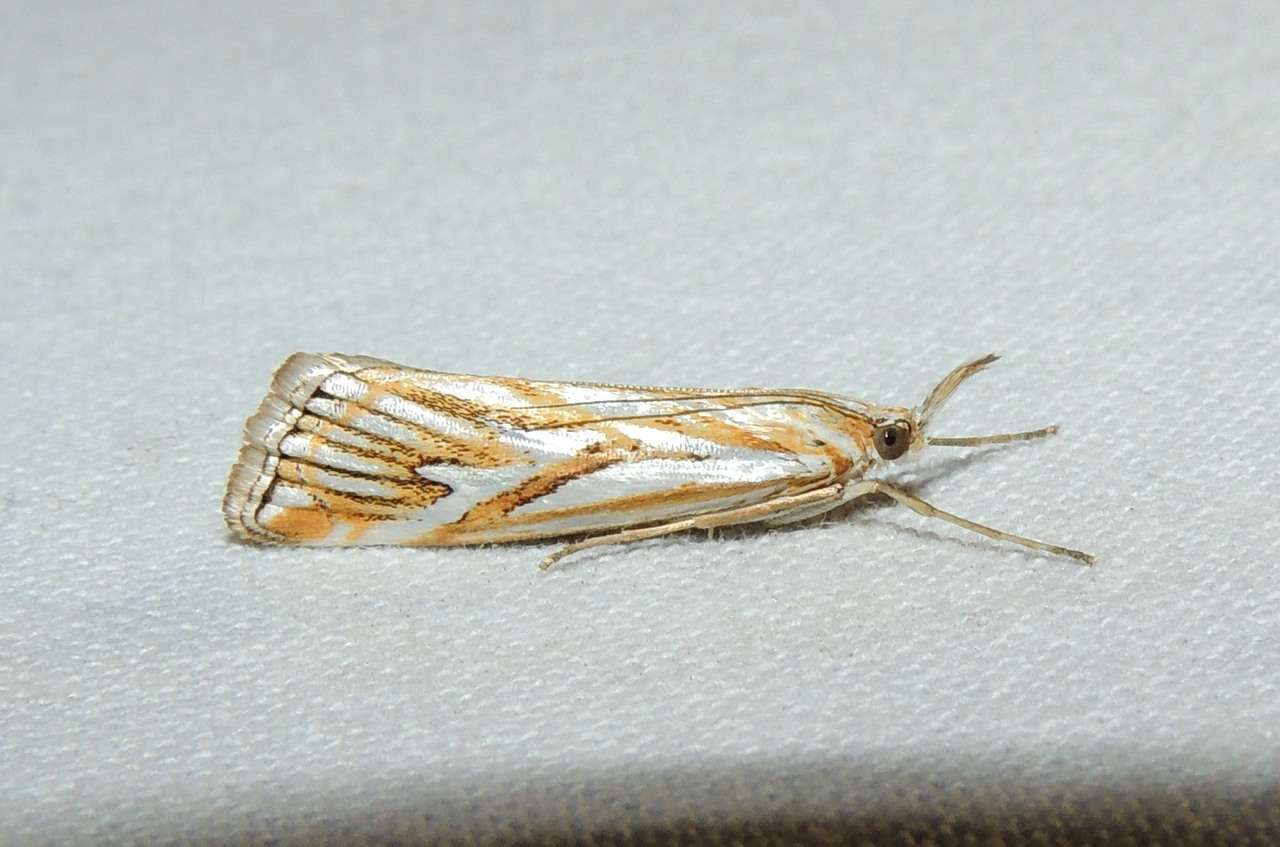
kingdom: Animalia
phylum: Arthropoda
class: Insecta
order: Lepidoptera
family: Crambidae
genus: Hednota
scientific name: Hednota pleniferellus
